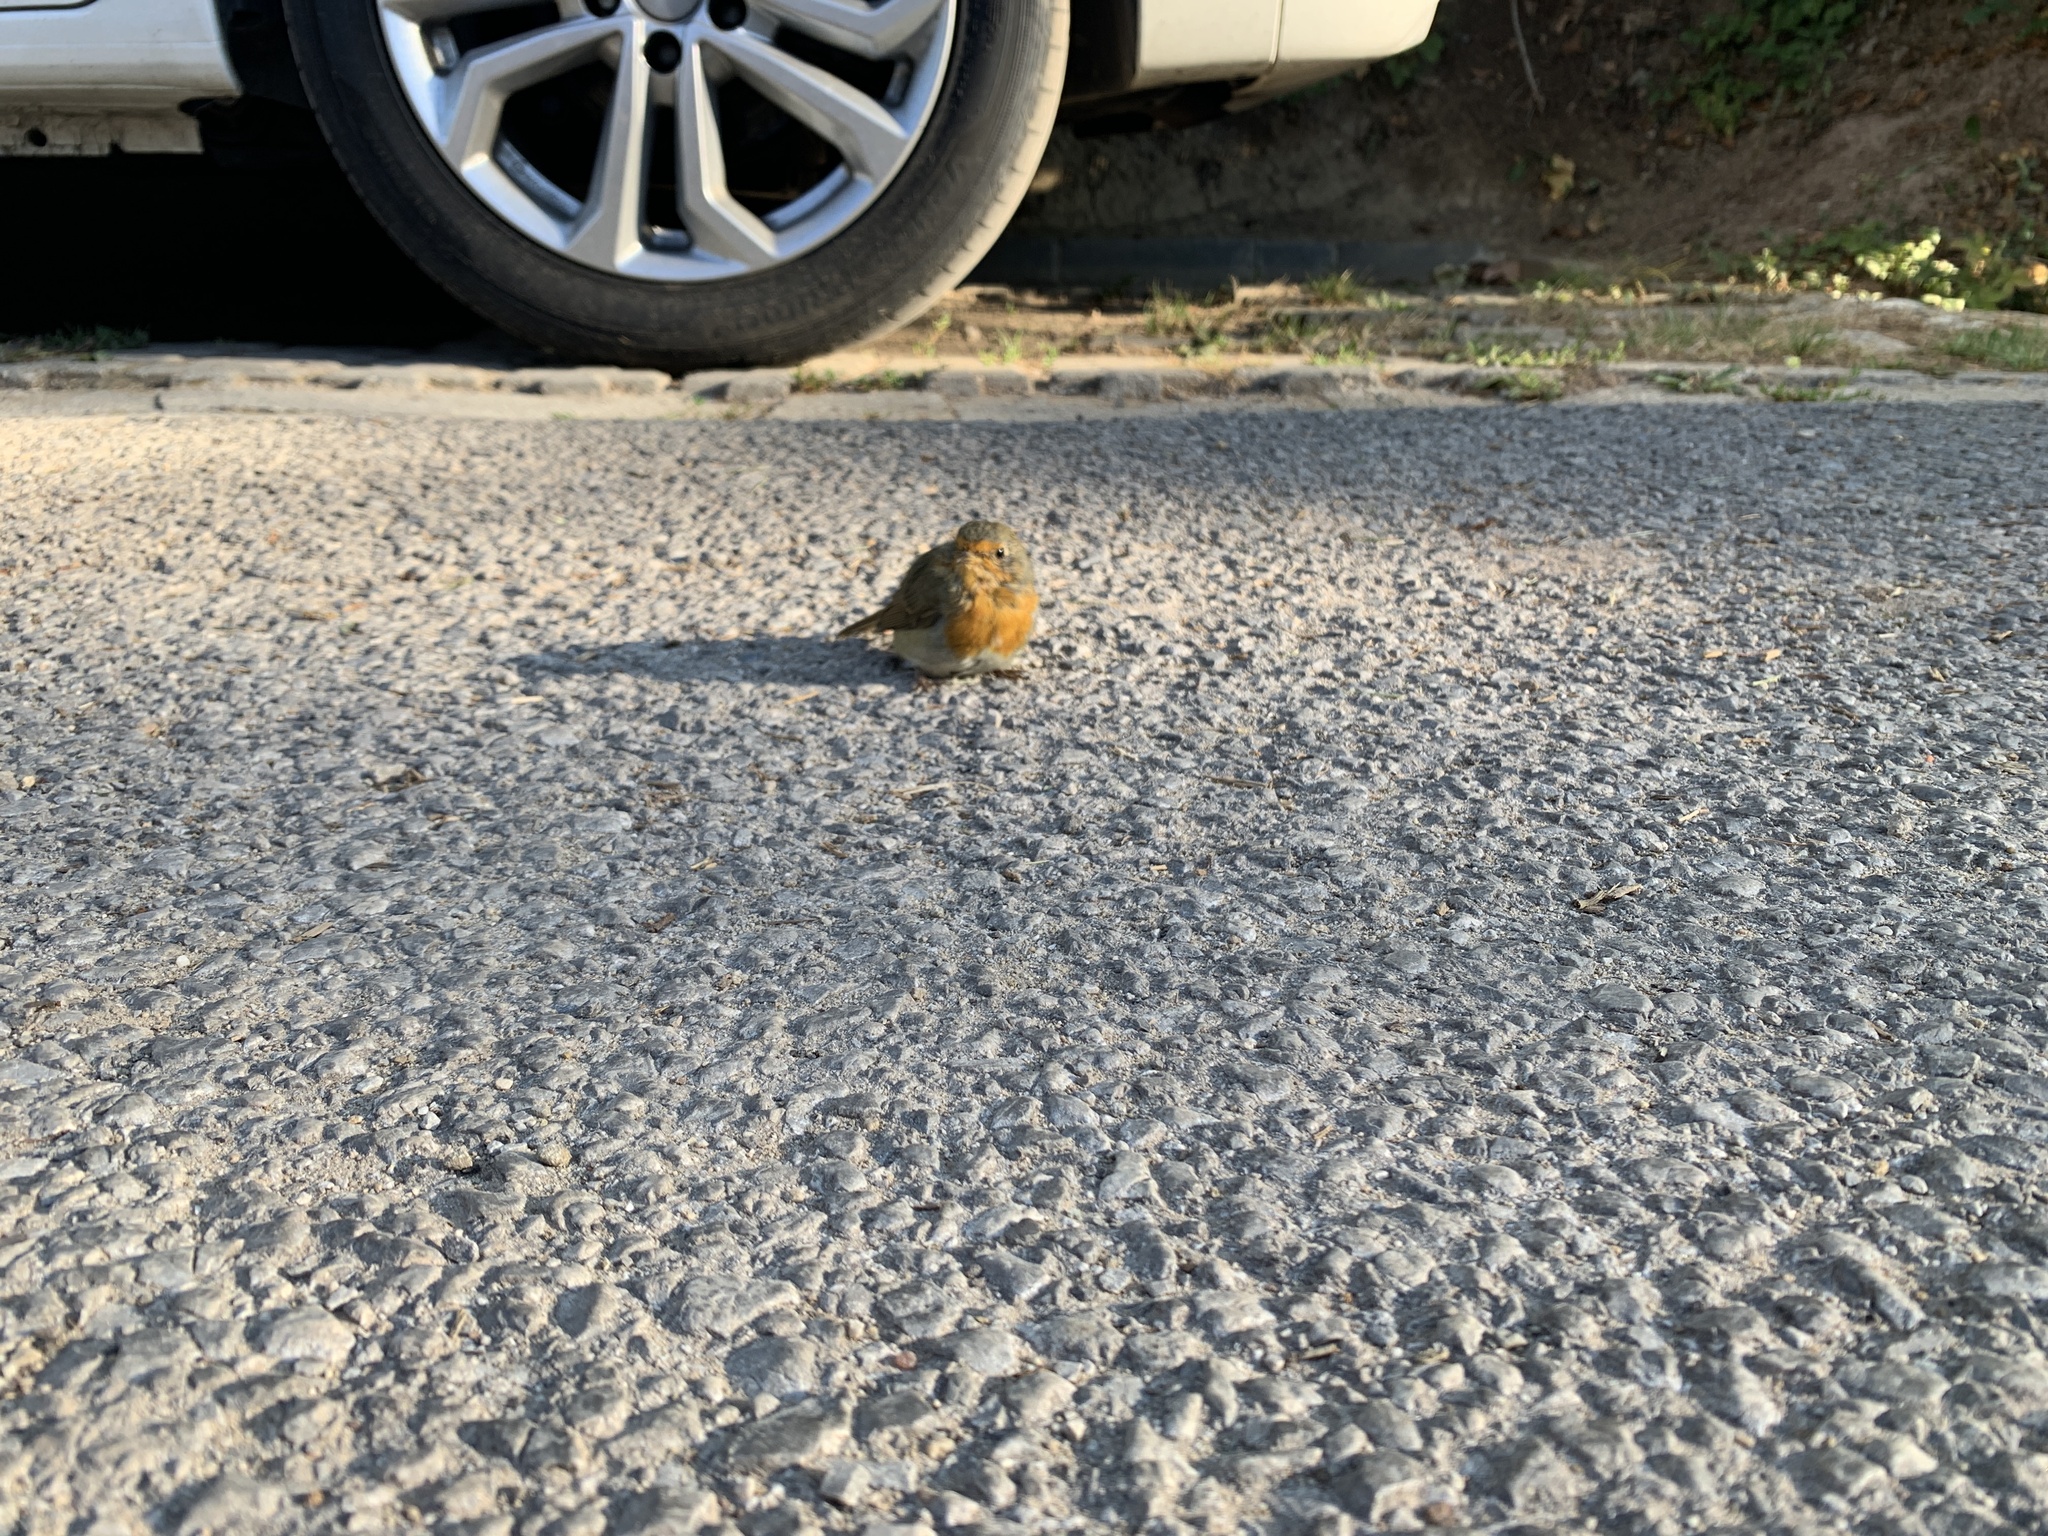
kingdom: Animalia
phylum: Chordata
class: Aves
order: Passeriformes
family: Muscicapidae
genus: Erithacus
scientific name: Erithacus rubecula
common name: European robin
